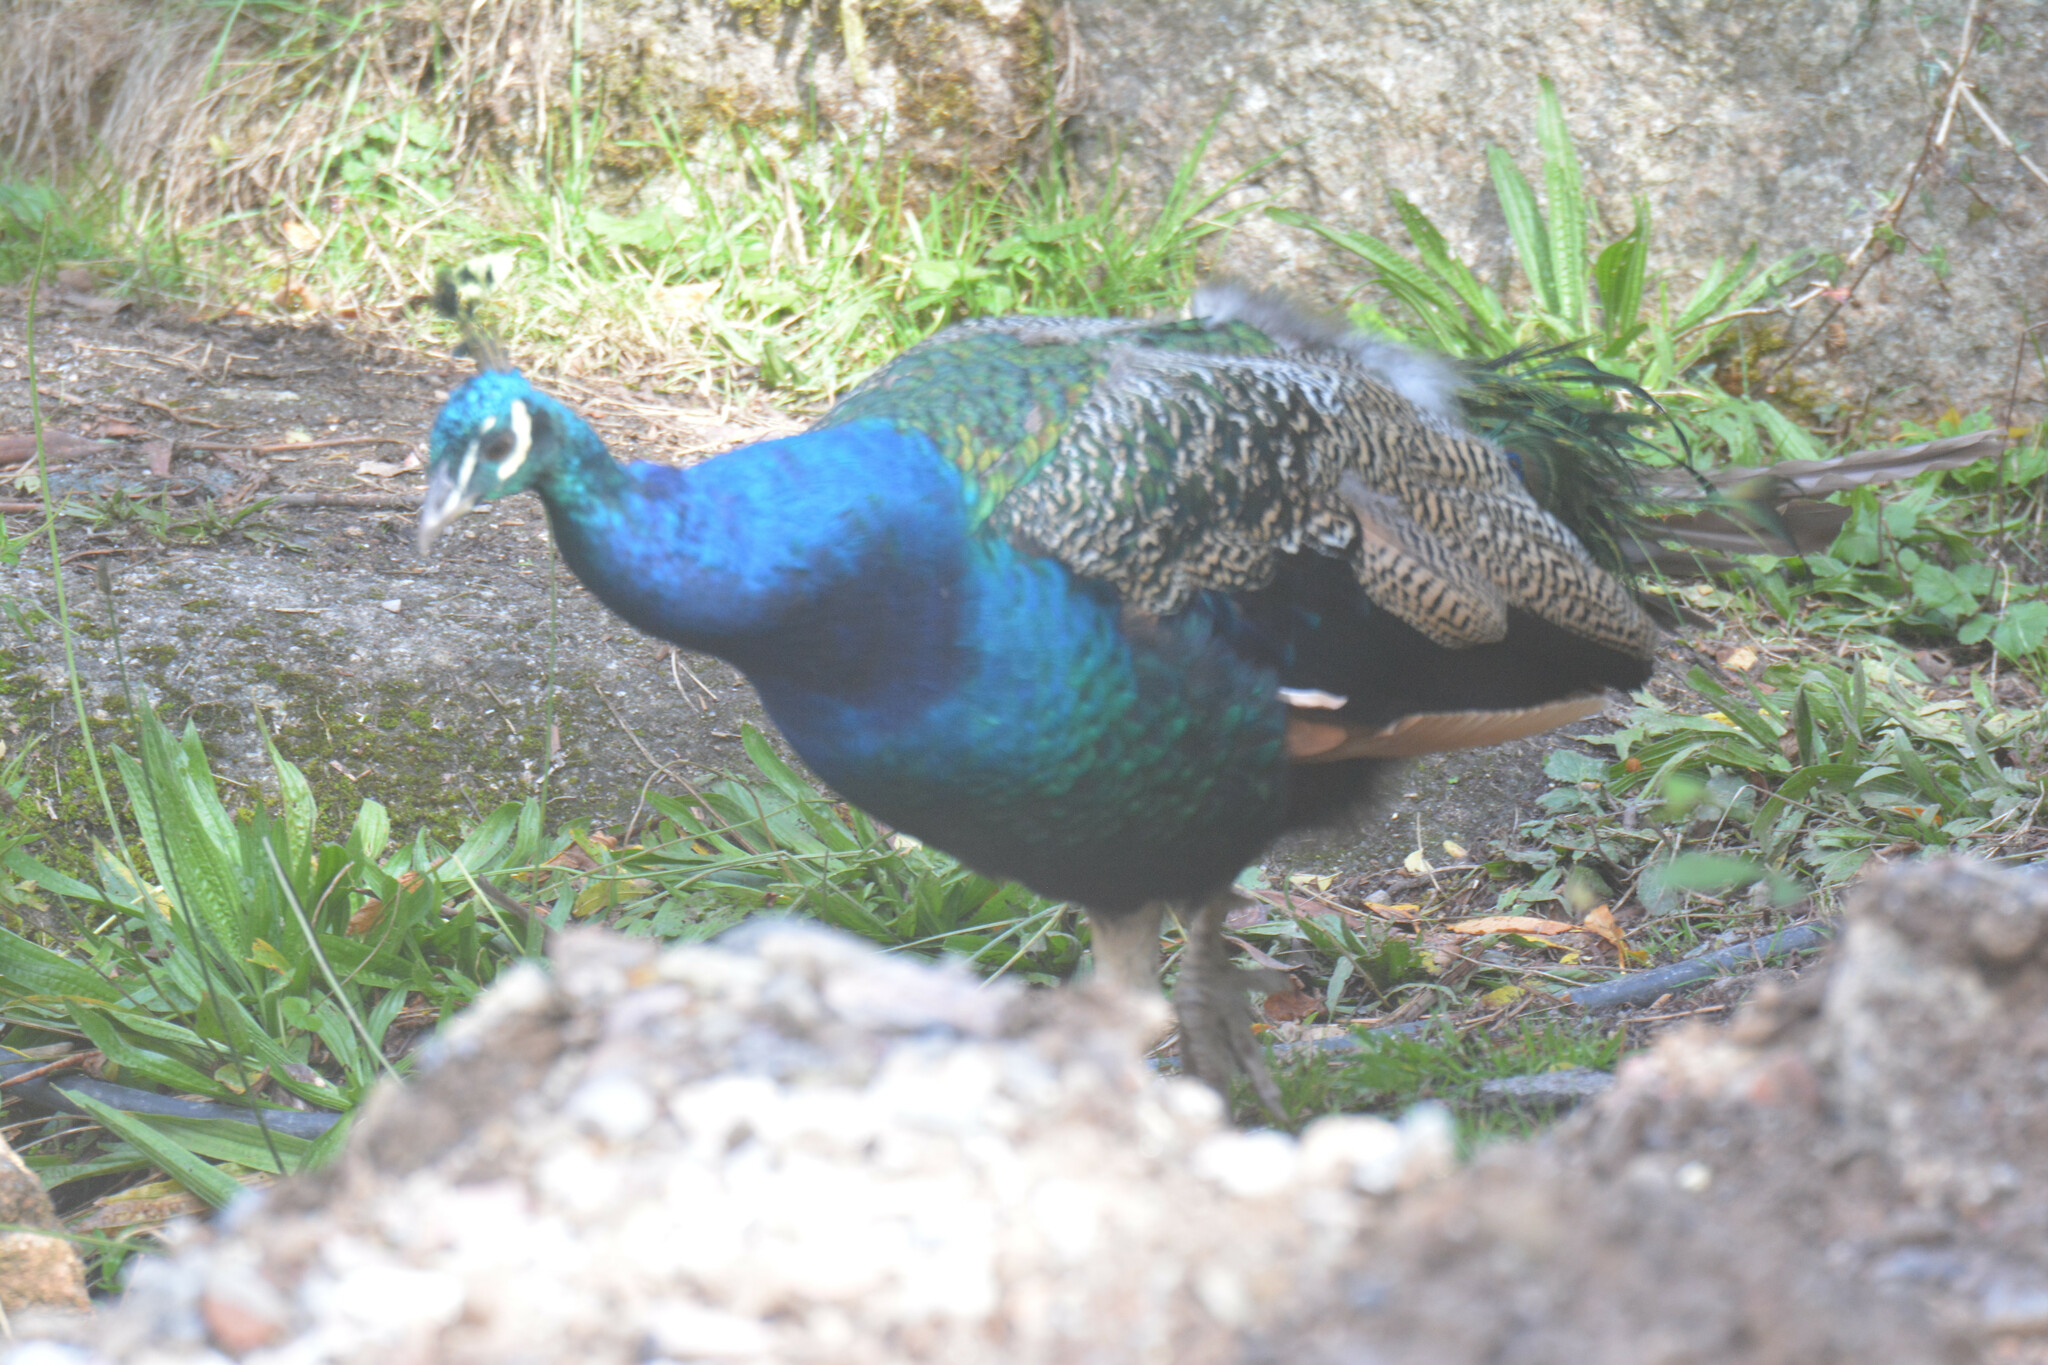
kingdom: Animalia
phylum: Chordata
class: Aves
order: Galliformes
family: Phasianidae
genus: Pavo
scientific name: Pavo cristatus
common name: Indian peafowl
